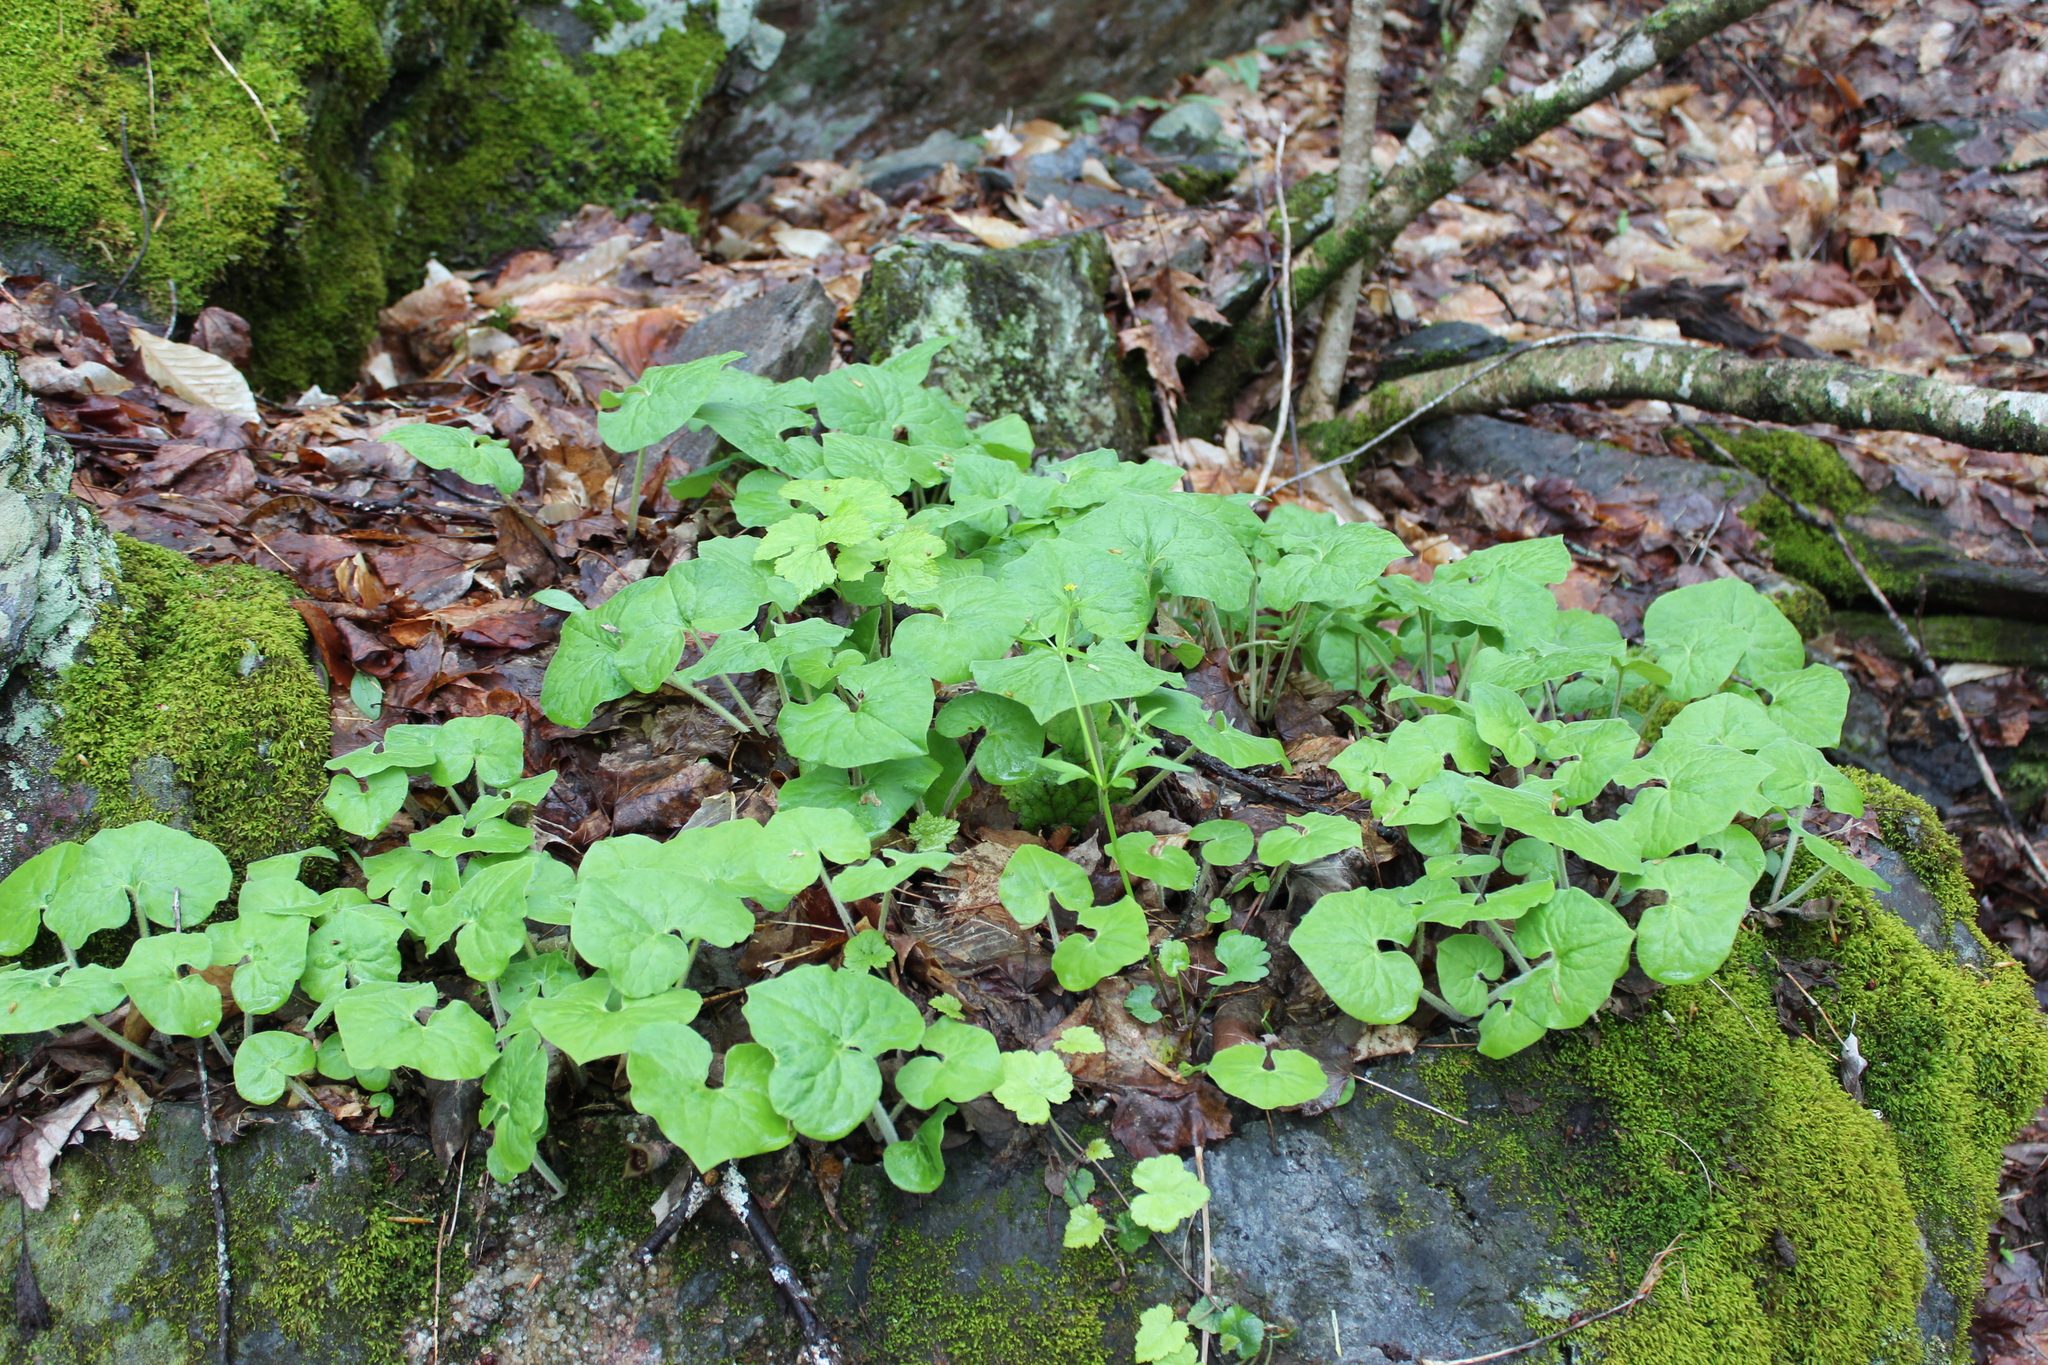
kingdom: Plantae
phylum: Tracheophyta
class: Magnoliopsida
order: Piperales
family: Aristolochiaceae
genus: Asarum
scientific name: Asarum canadense
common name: Wild ginger
